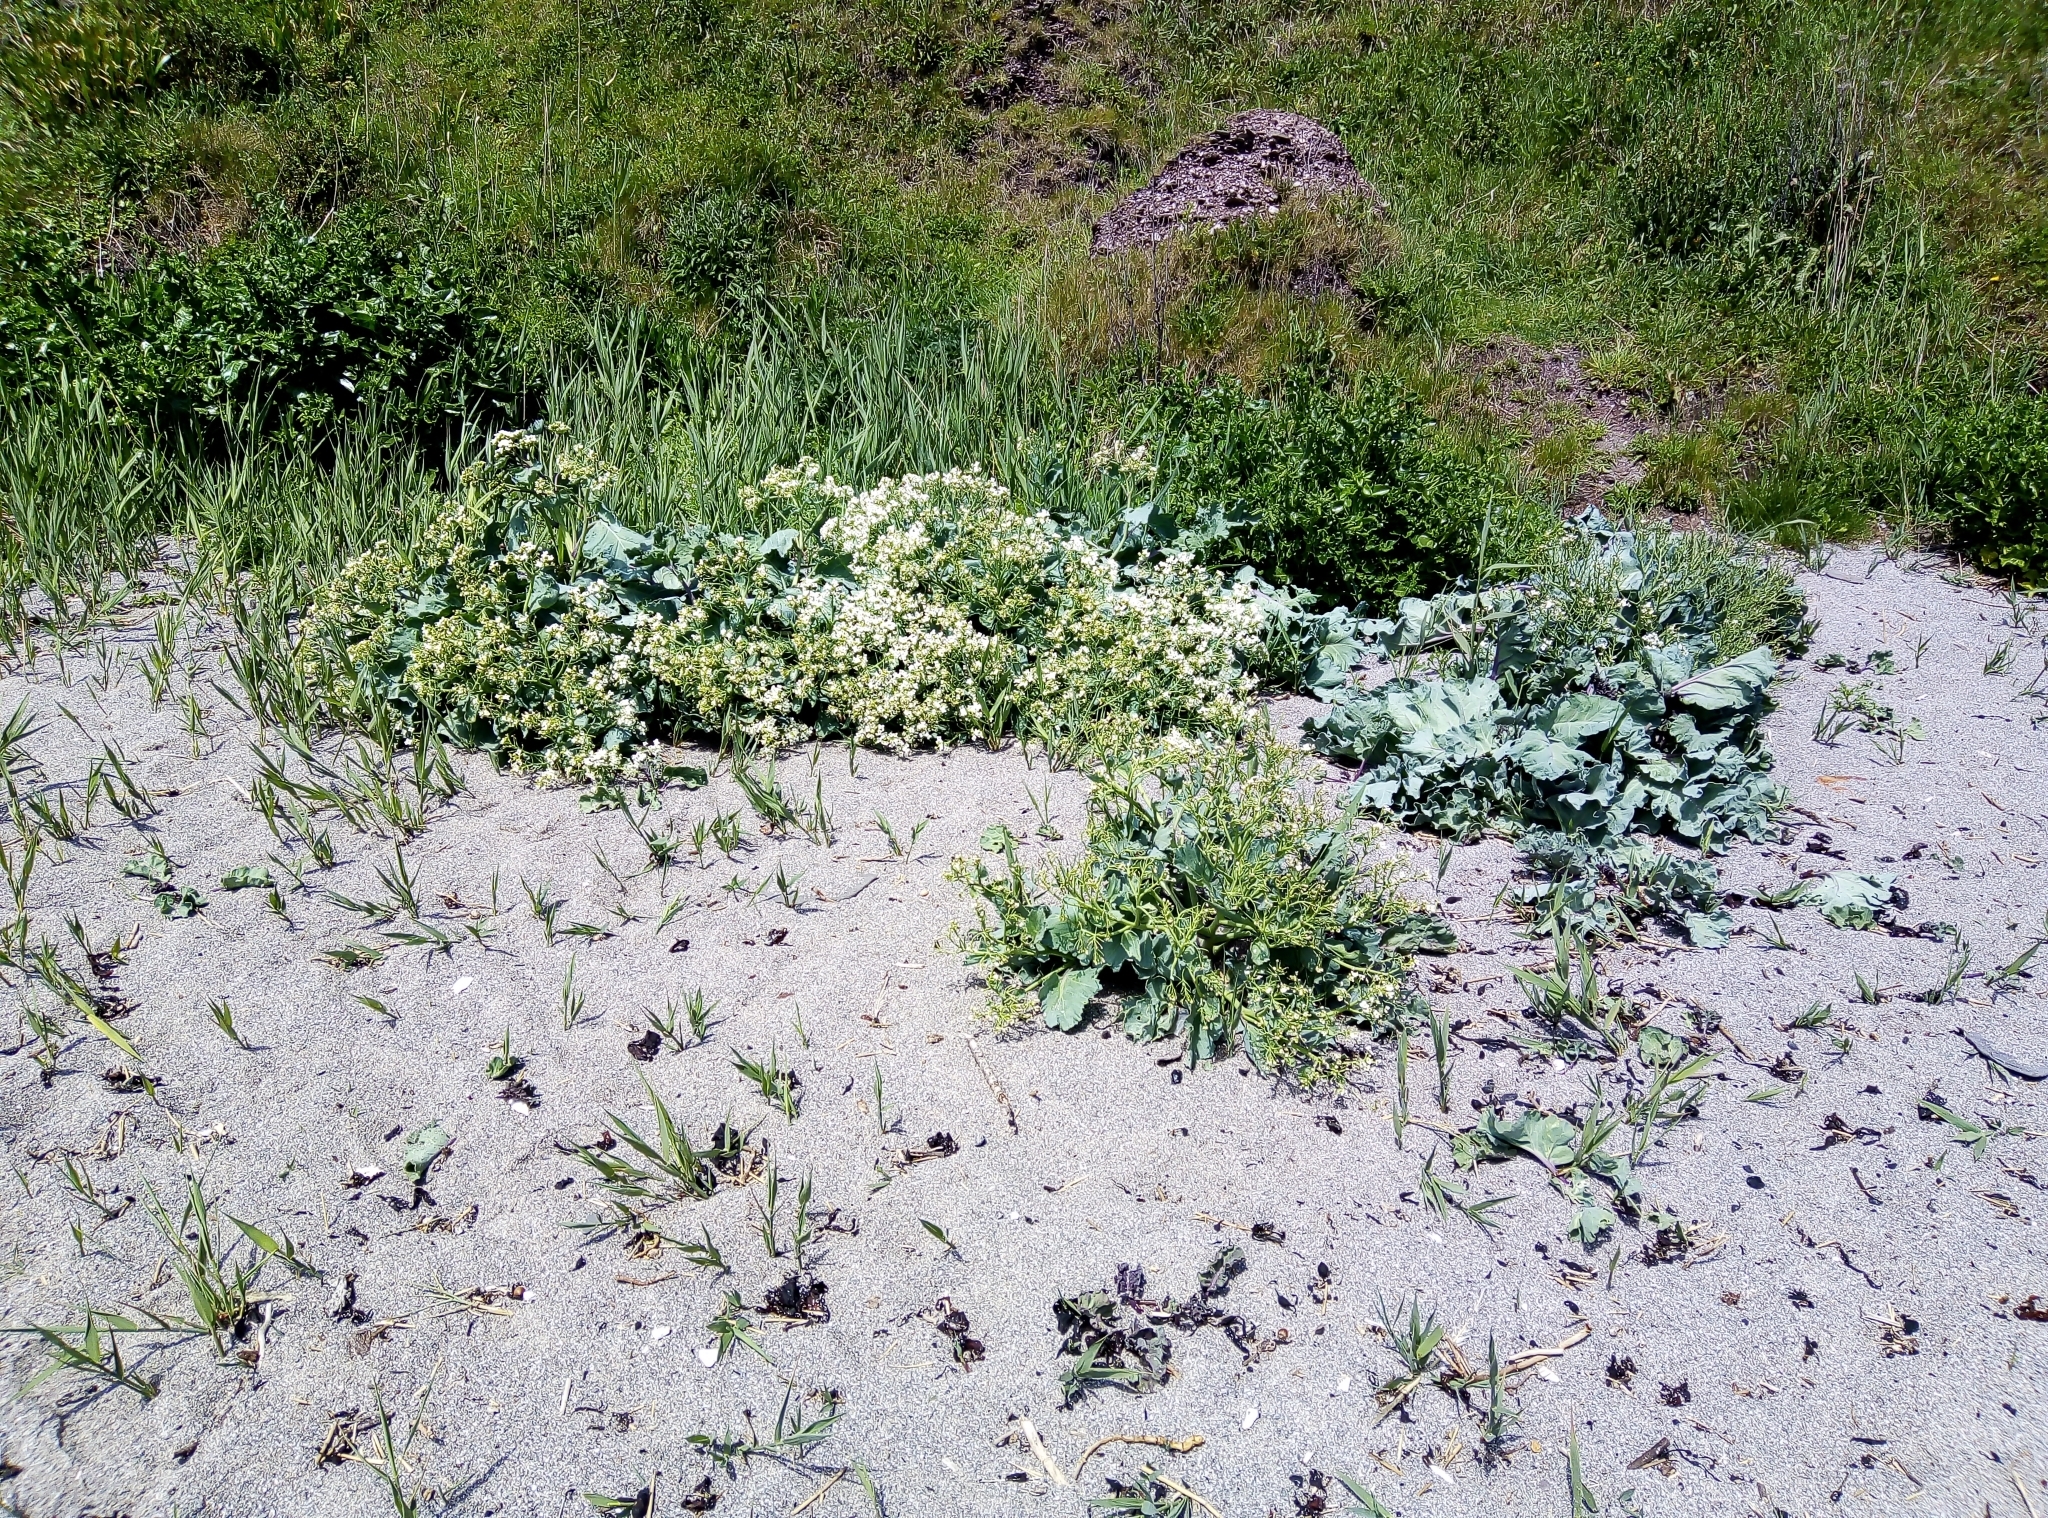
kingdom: Plantae
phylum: Tracheophyta
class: Magnoliopsida
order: Brassicales
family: Brassicaceae
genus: Crambe
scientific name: Crambe maritima
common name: Sea-kale
